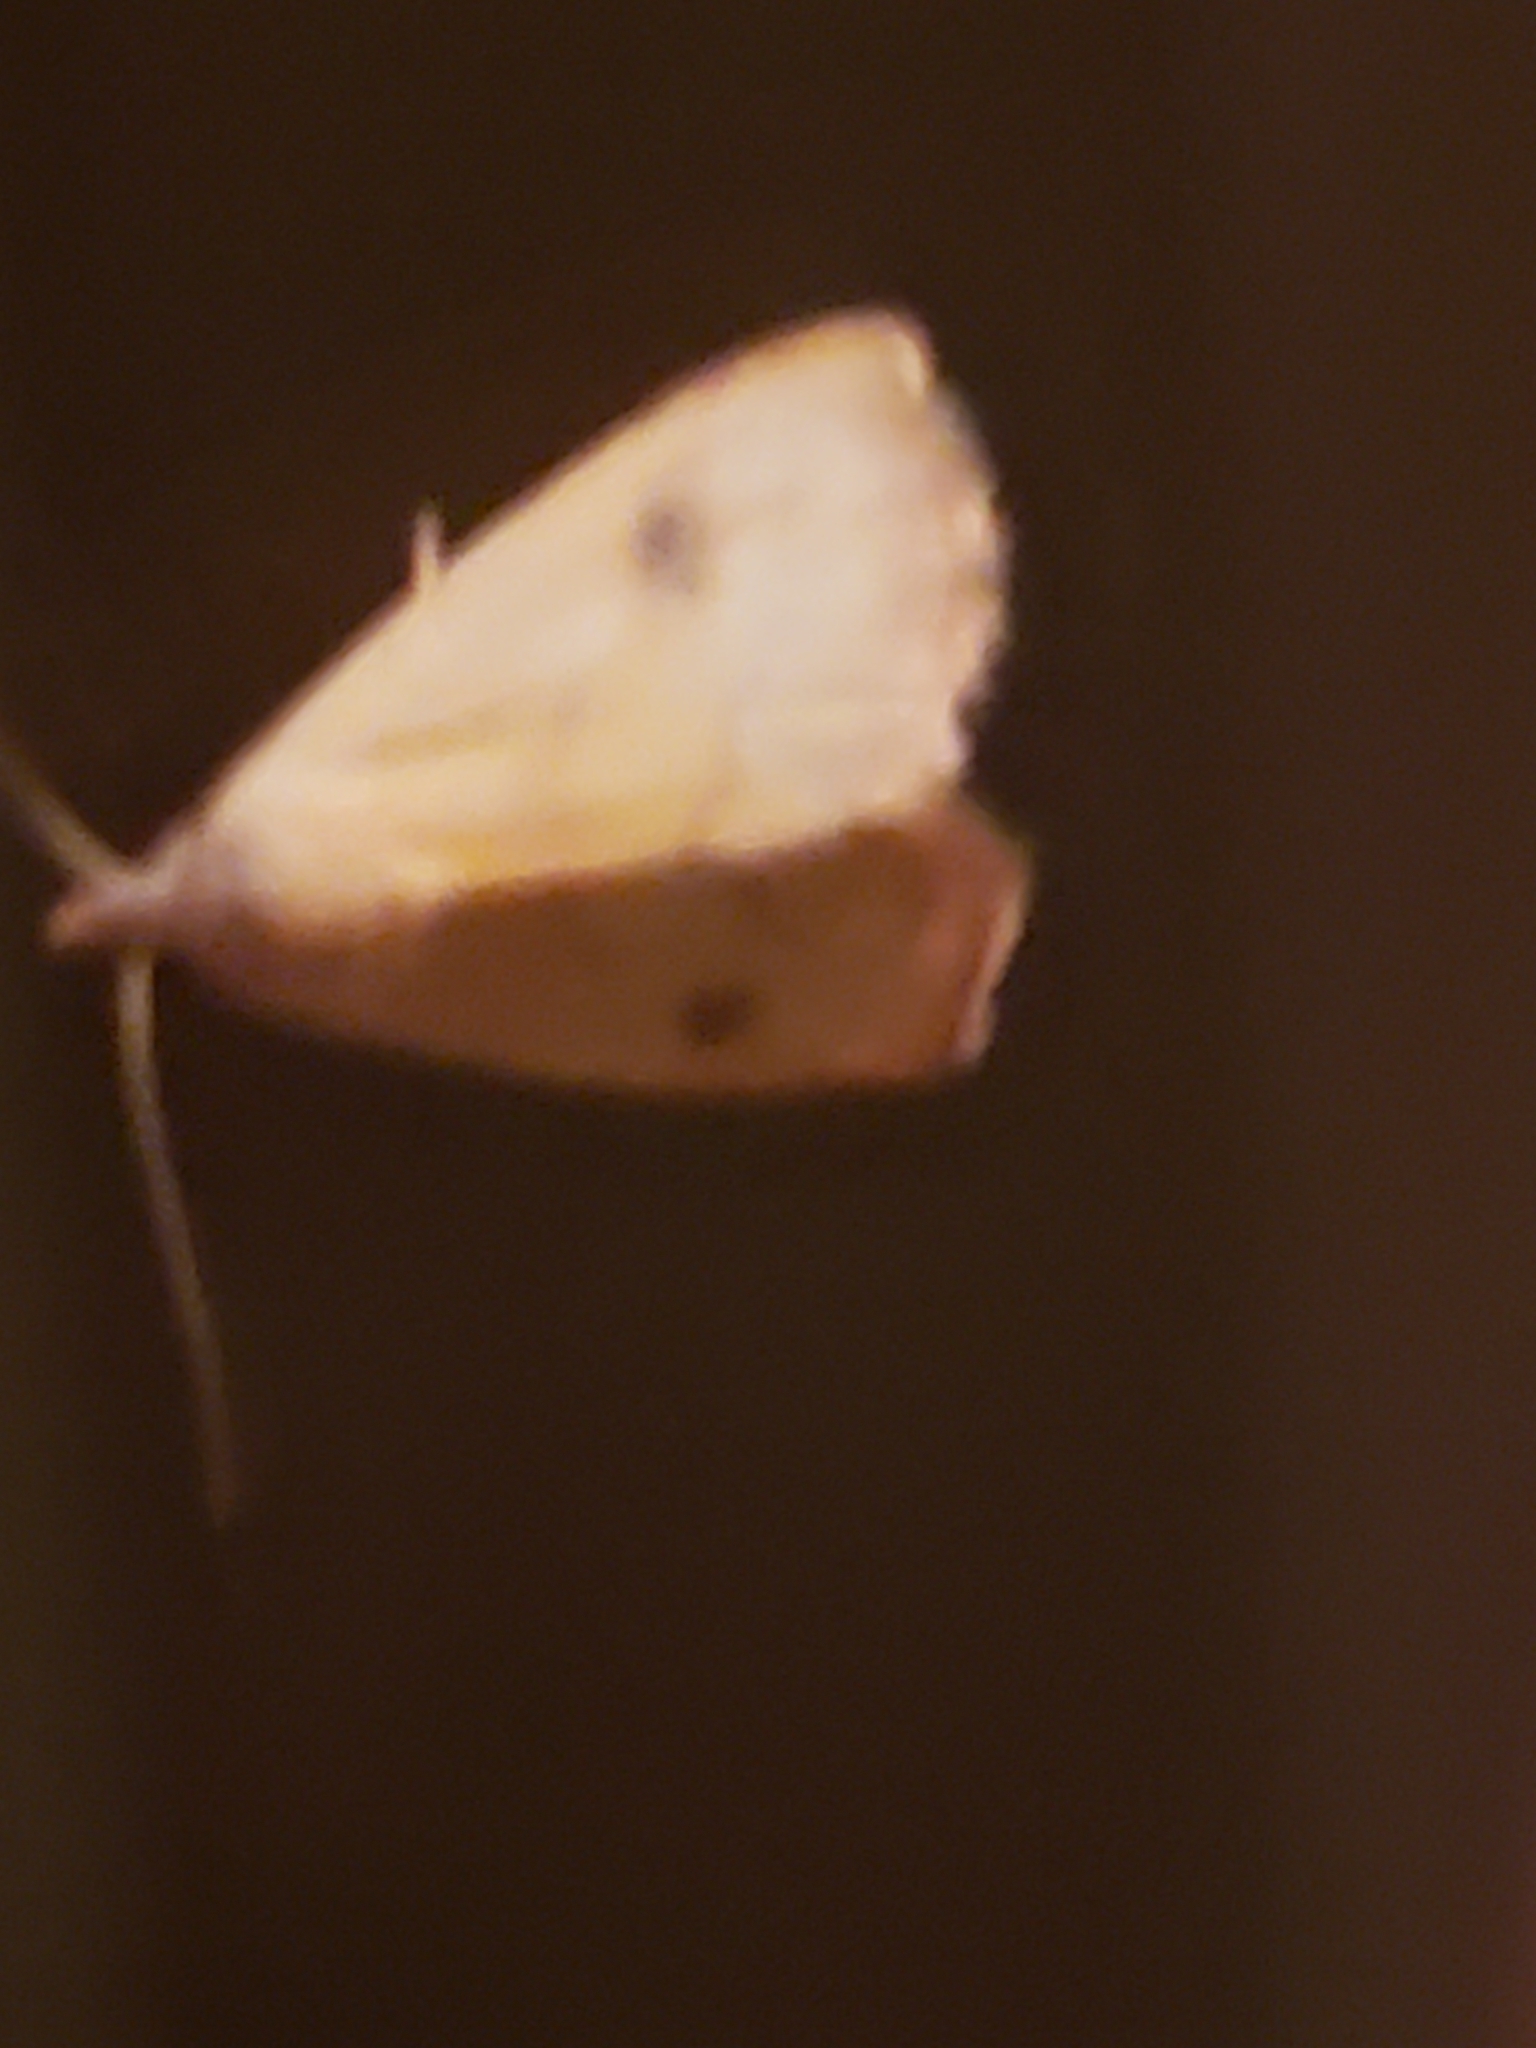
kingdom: Animalia
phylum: Arthropoda
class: Insecta
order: Lepidoptera
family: Erebidae
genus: Rivula
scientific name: Rivula propinqualis
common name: Spotted grass moth
